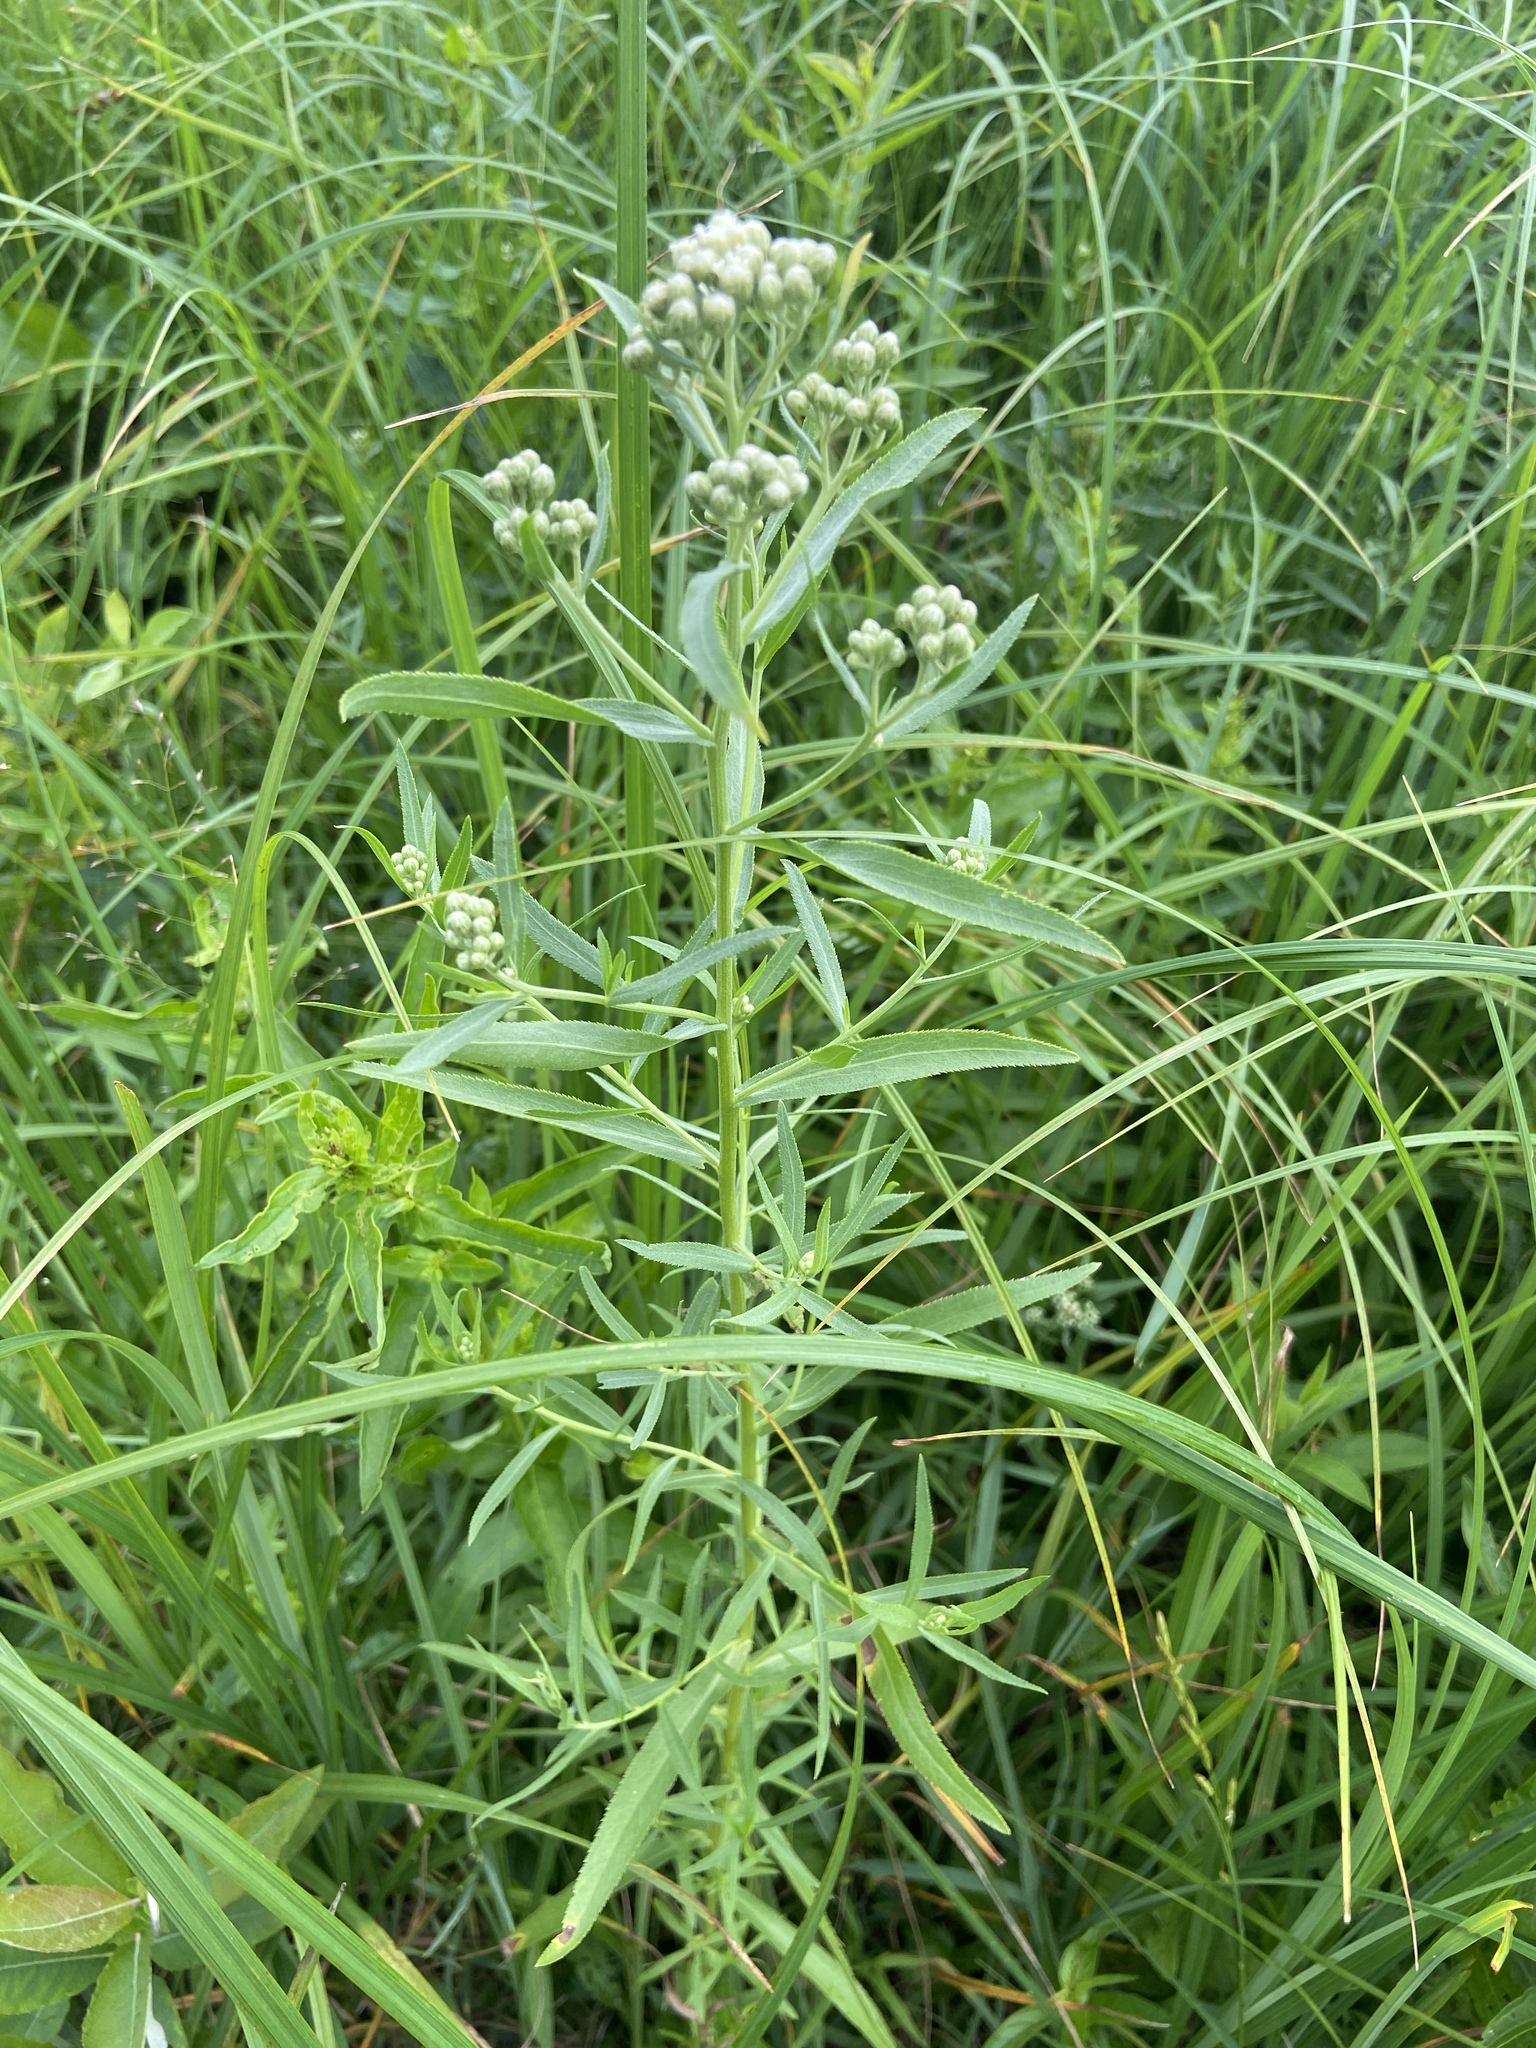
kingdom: Plantae
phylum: Tracheophyta
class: Magnoliopsida
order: Asterales
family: Asteraceae
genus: Achillea
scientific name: Achillea salicifolia
